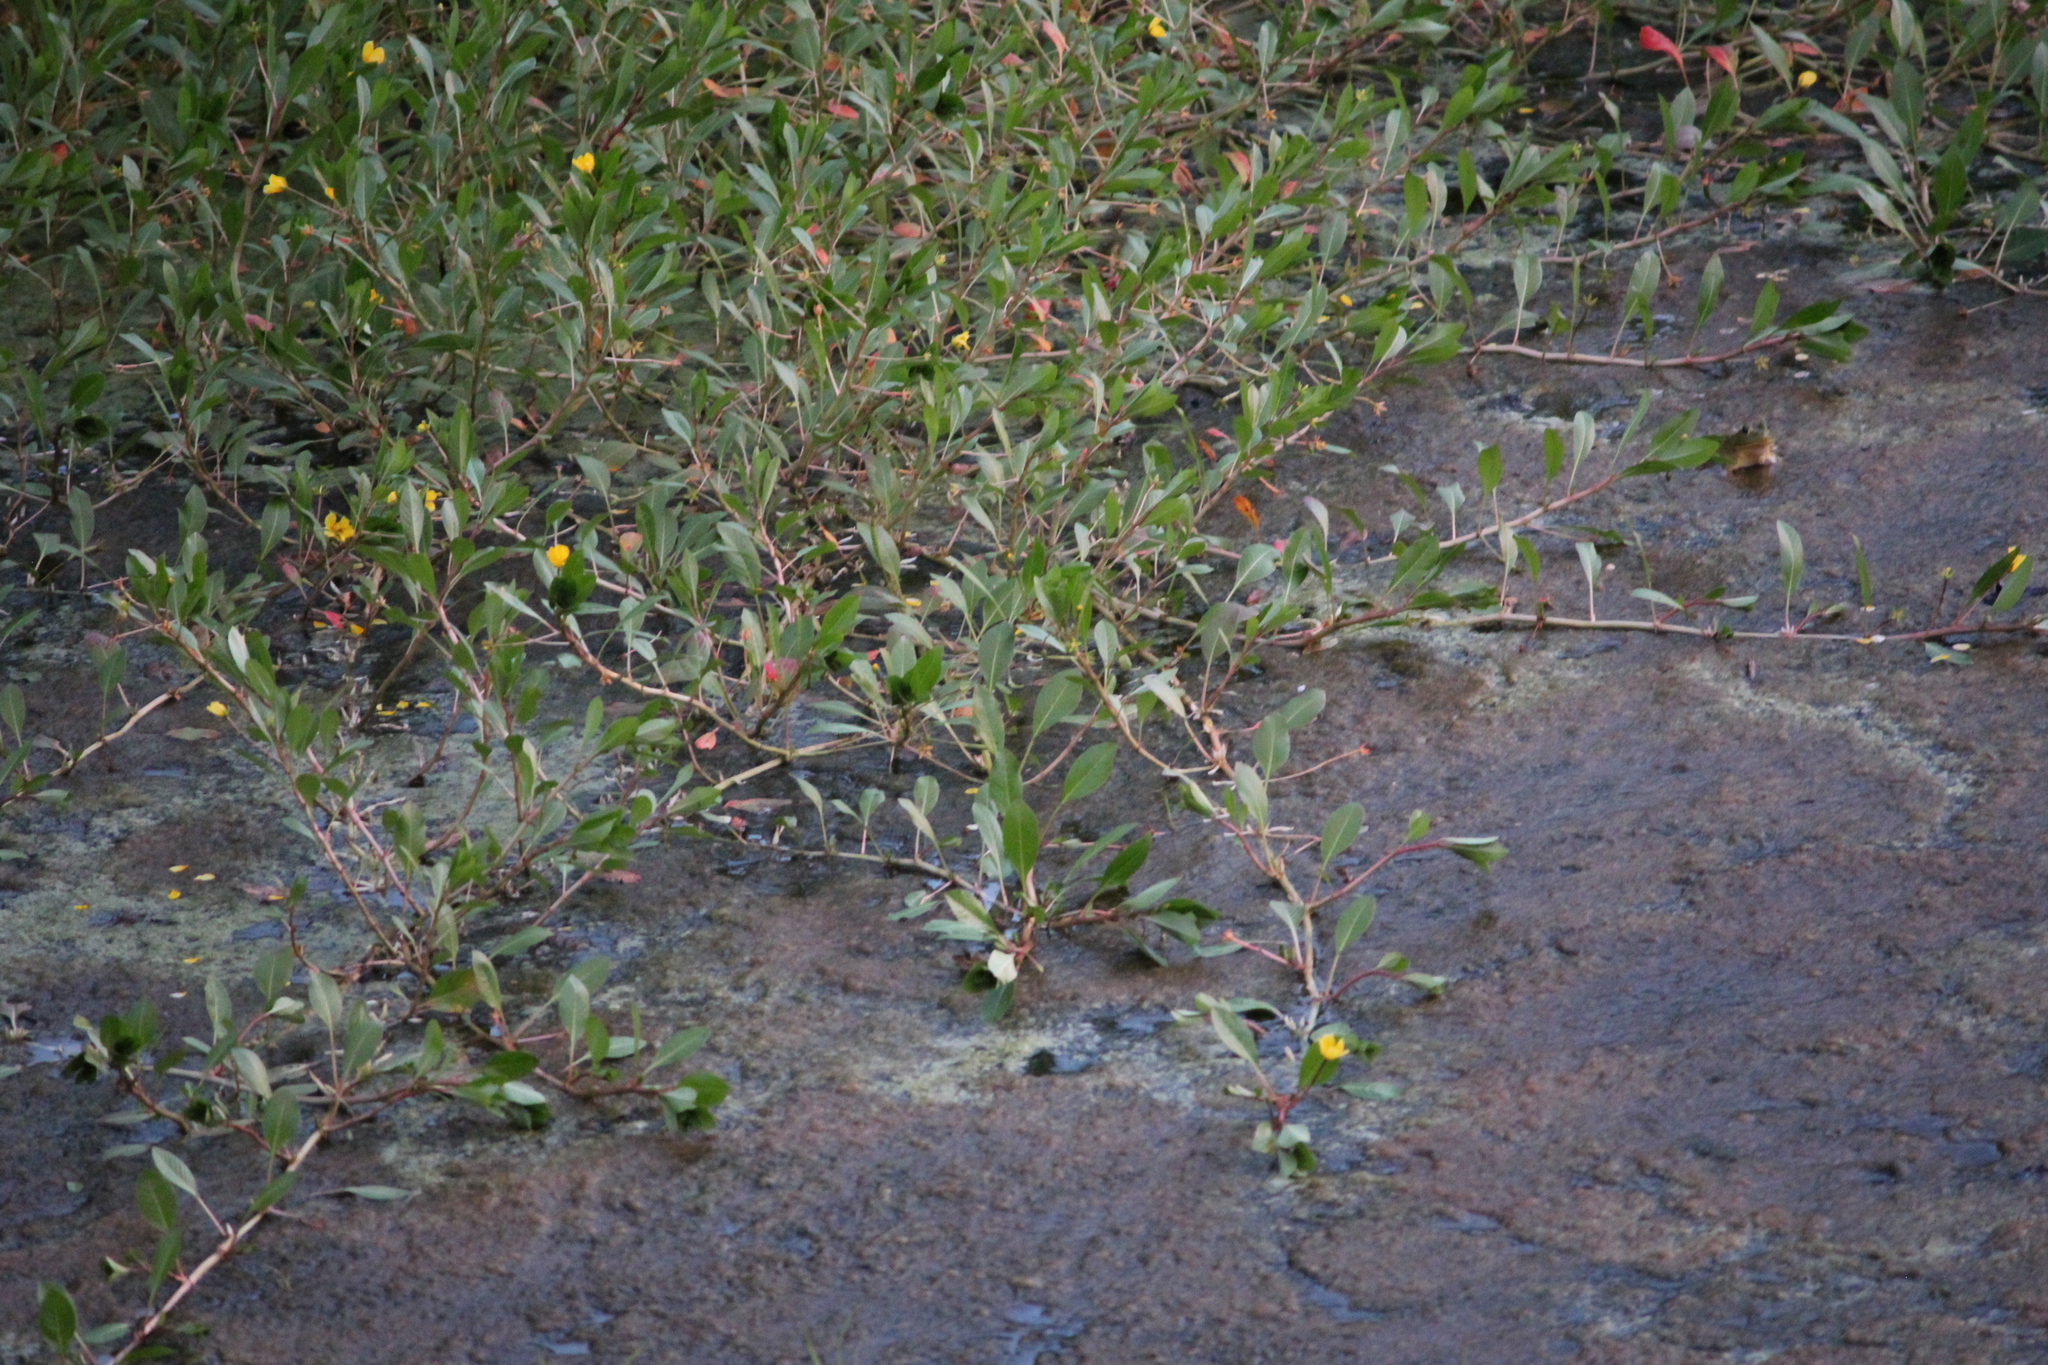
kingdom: Plantae
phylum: Tracheophyta
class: Magnoliopsida
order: Myrtales
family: Onagraceae
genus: Ludwigia
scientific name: Ludwigia peploides
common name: Floating primrose-willow
